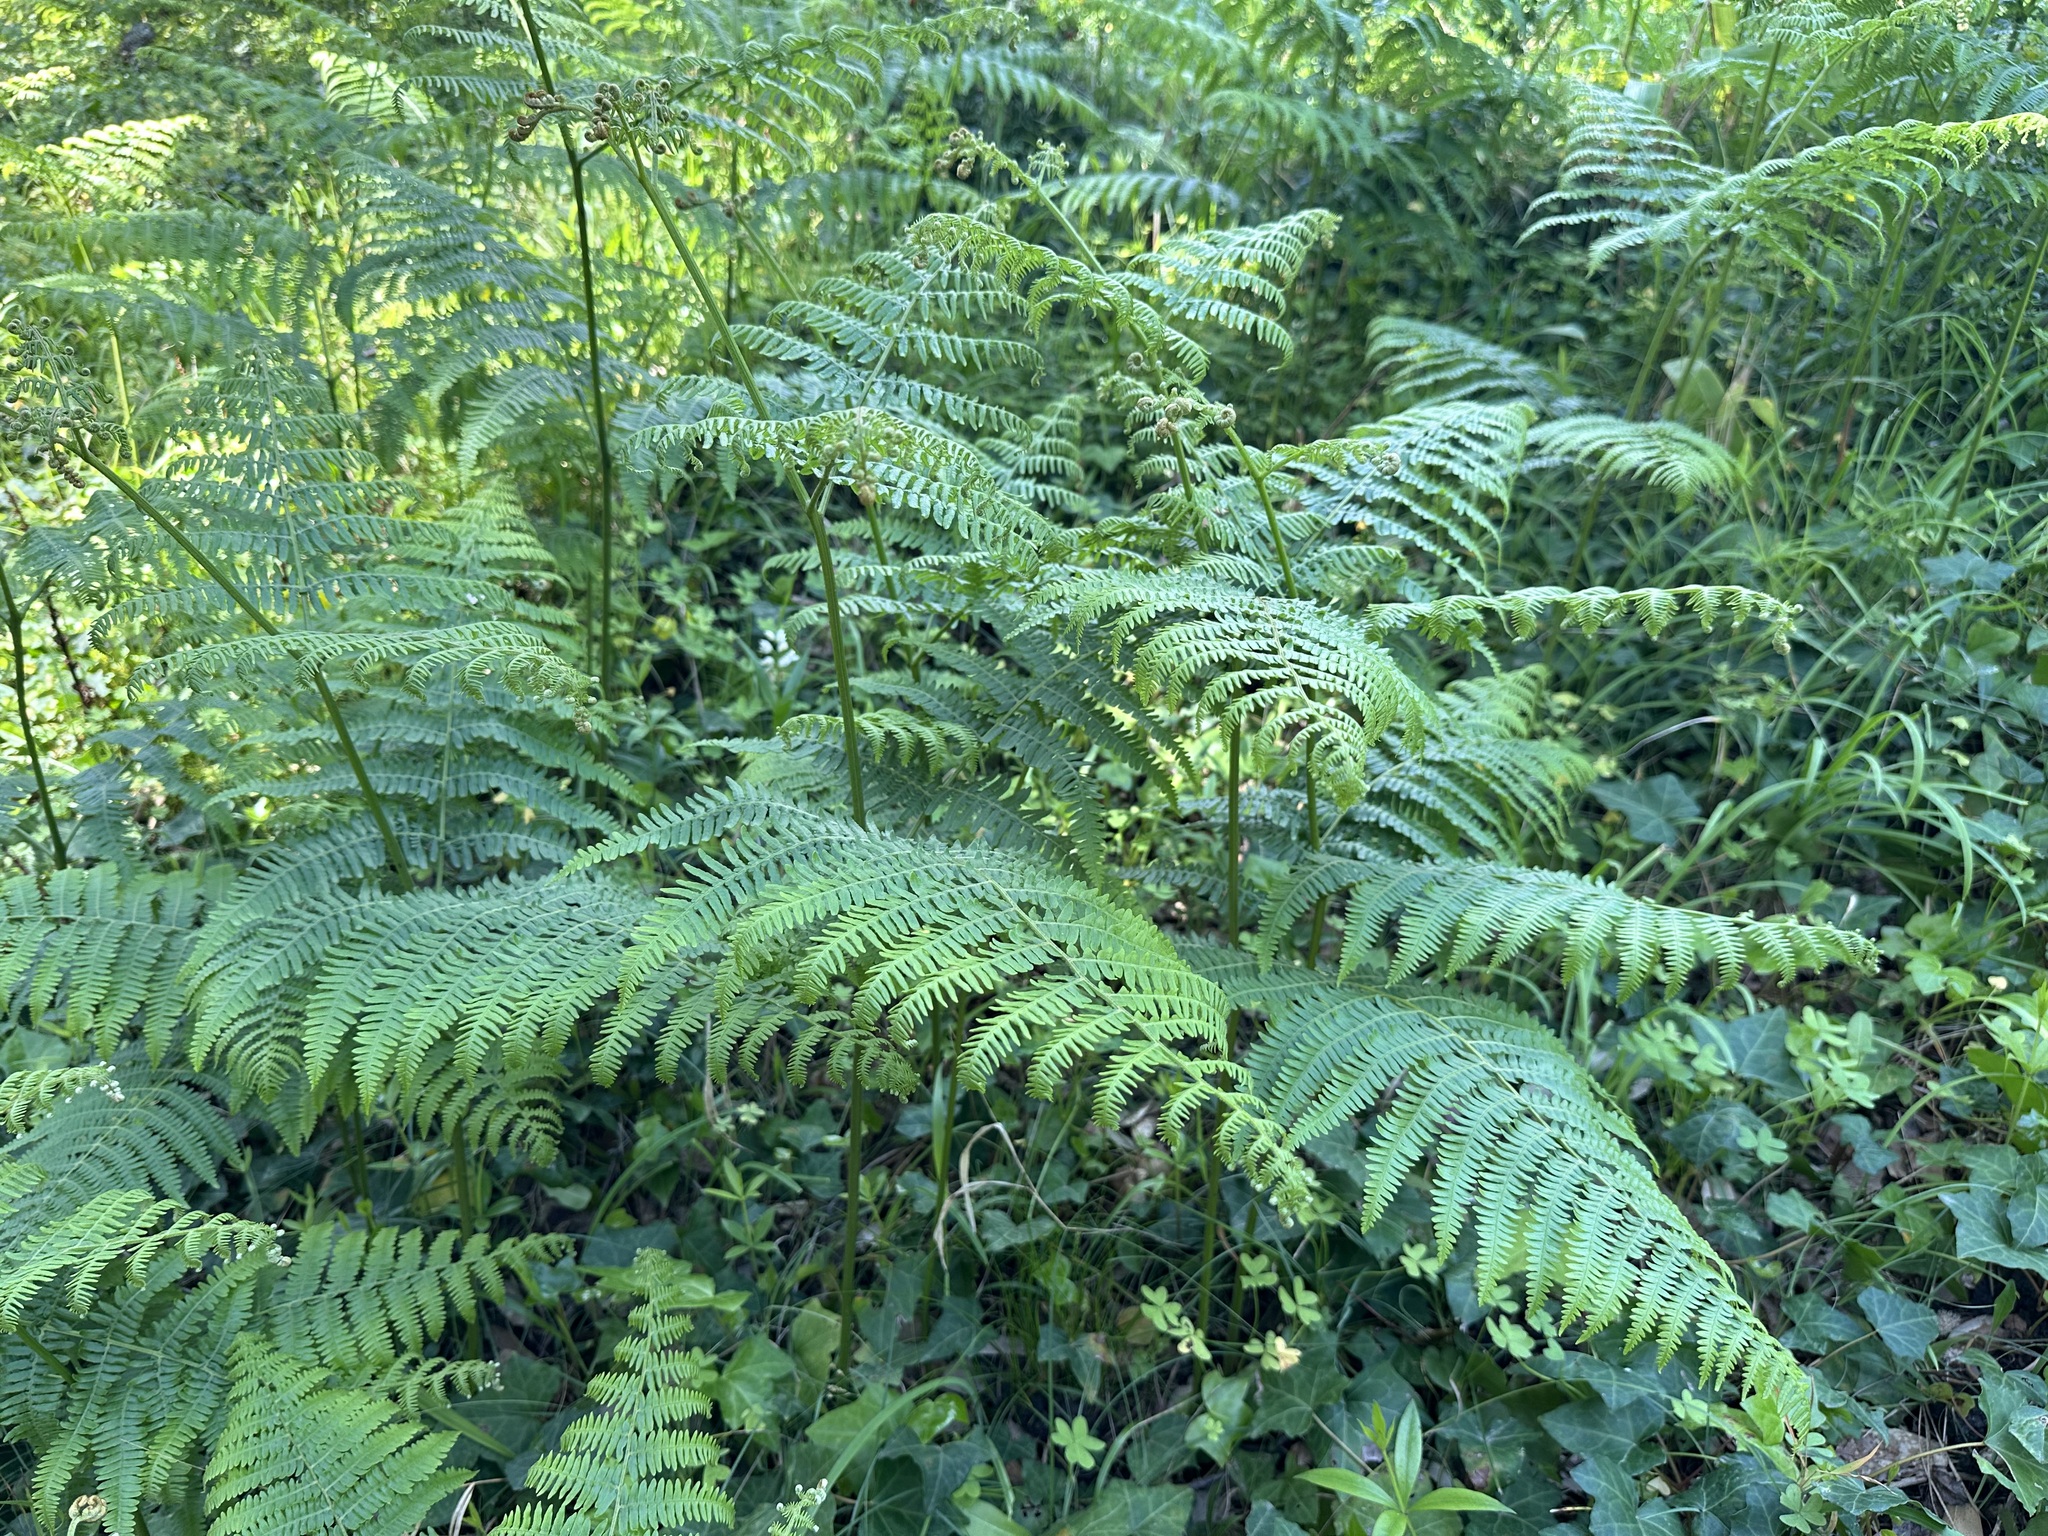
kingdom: Plantae
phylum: Tracheophyta
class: Polypodiopsida
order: Polypodiales
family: Dennstaedtiaceae
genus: Pteridium
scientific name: Pteridium aquilinum
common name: Bracken
